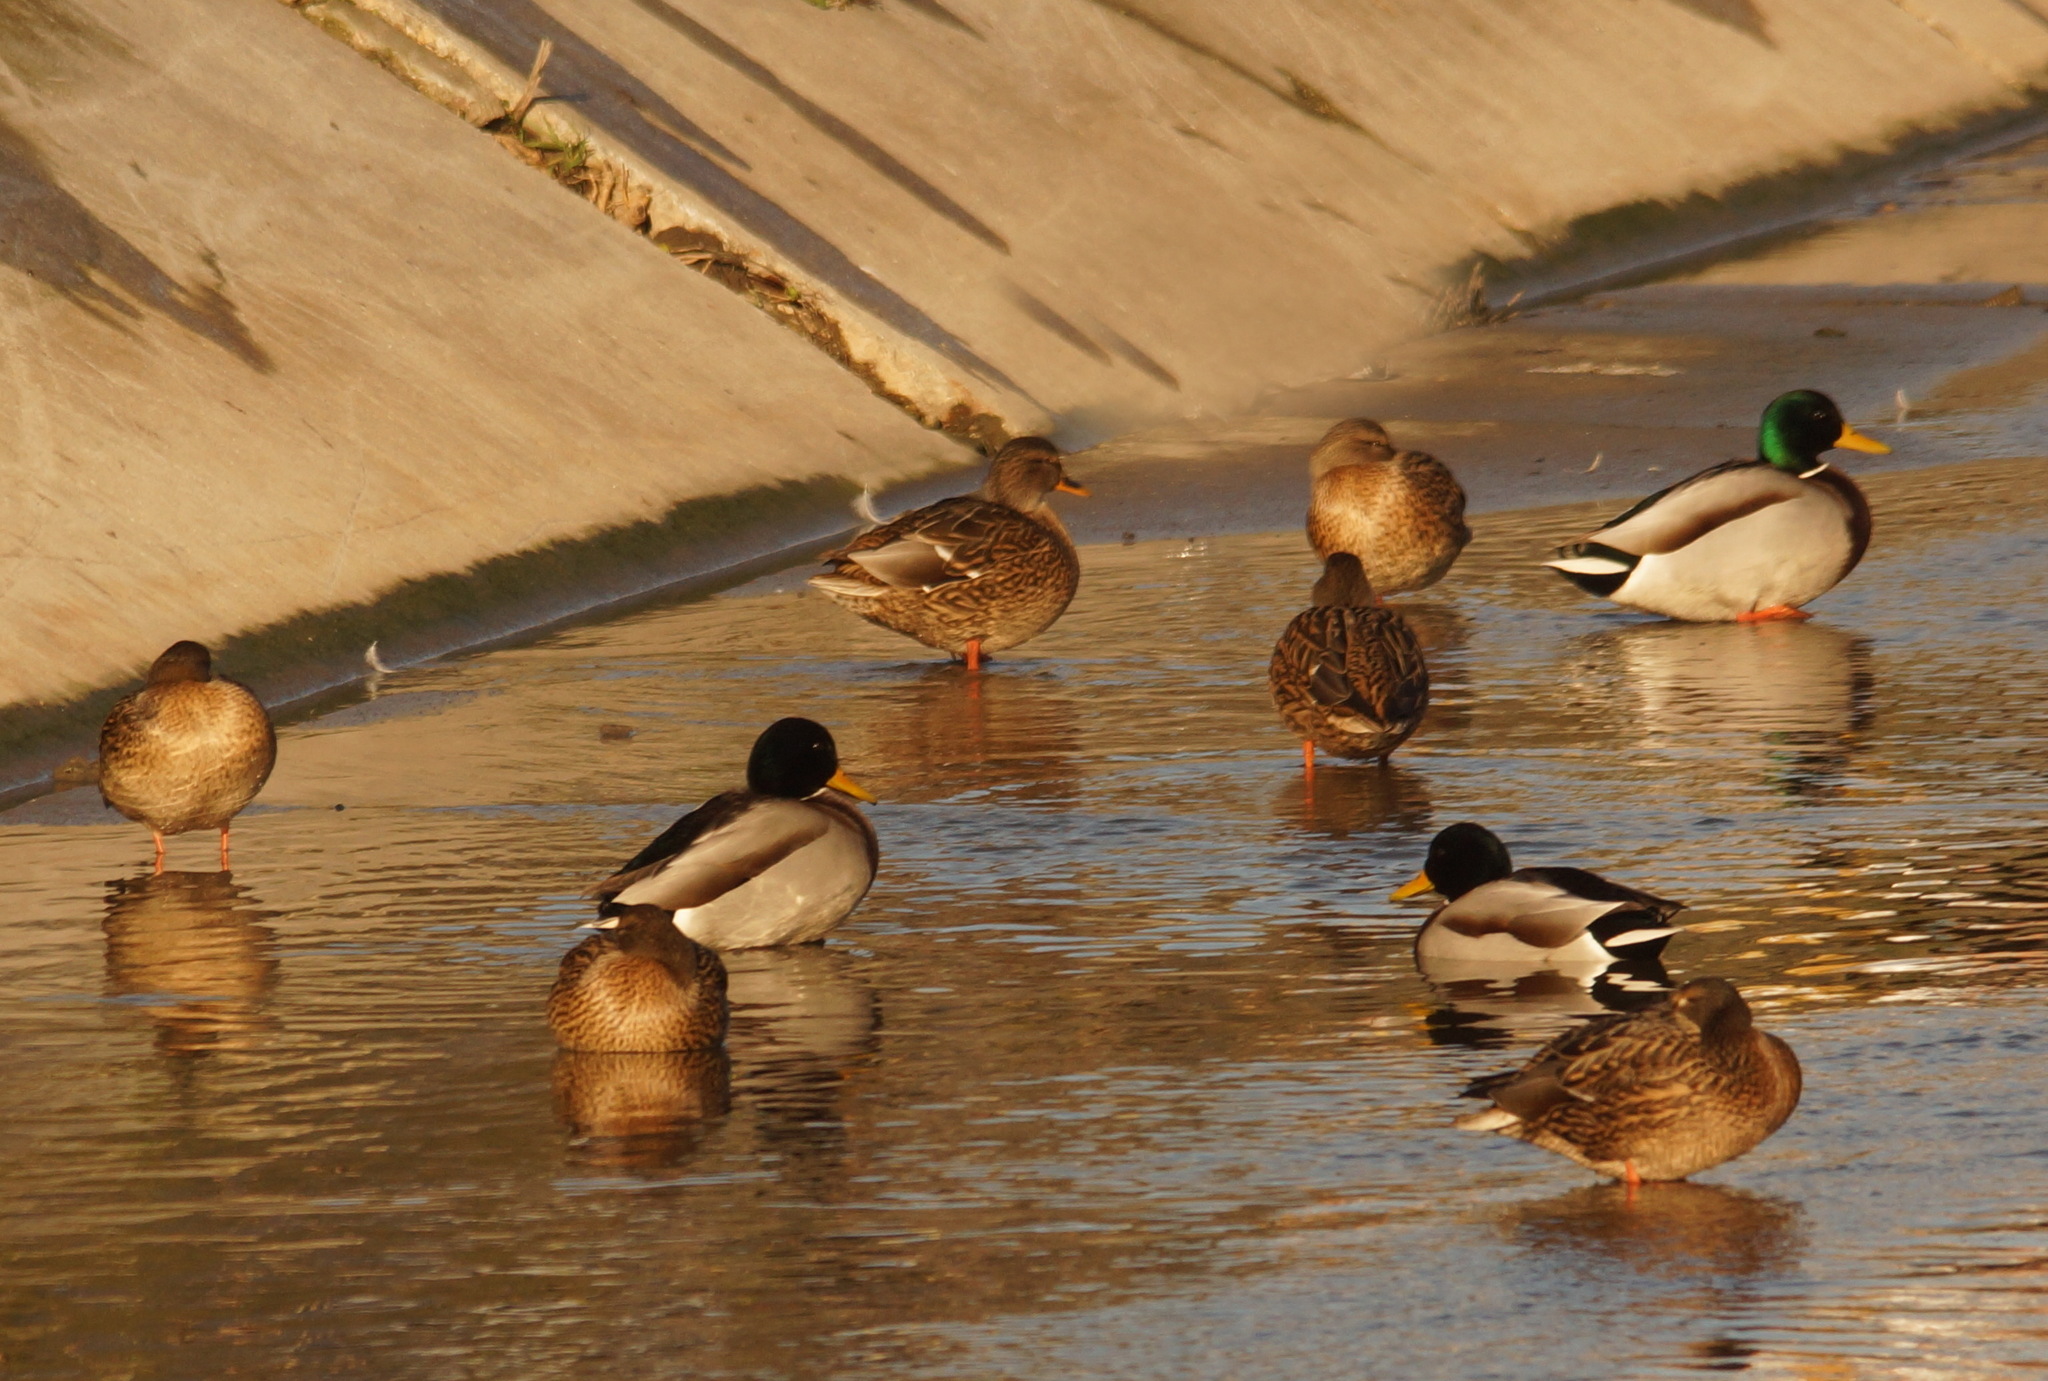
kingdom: Animalia
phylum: Chordata
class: Aves
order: Anseriformes
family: Anatidae
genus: Anas
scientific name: Anas platyrhynchos
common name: Mallard
